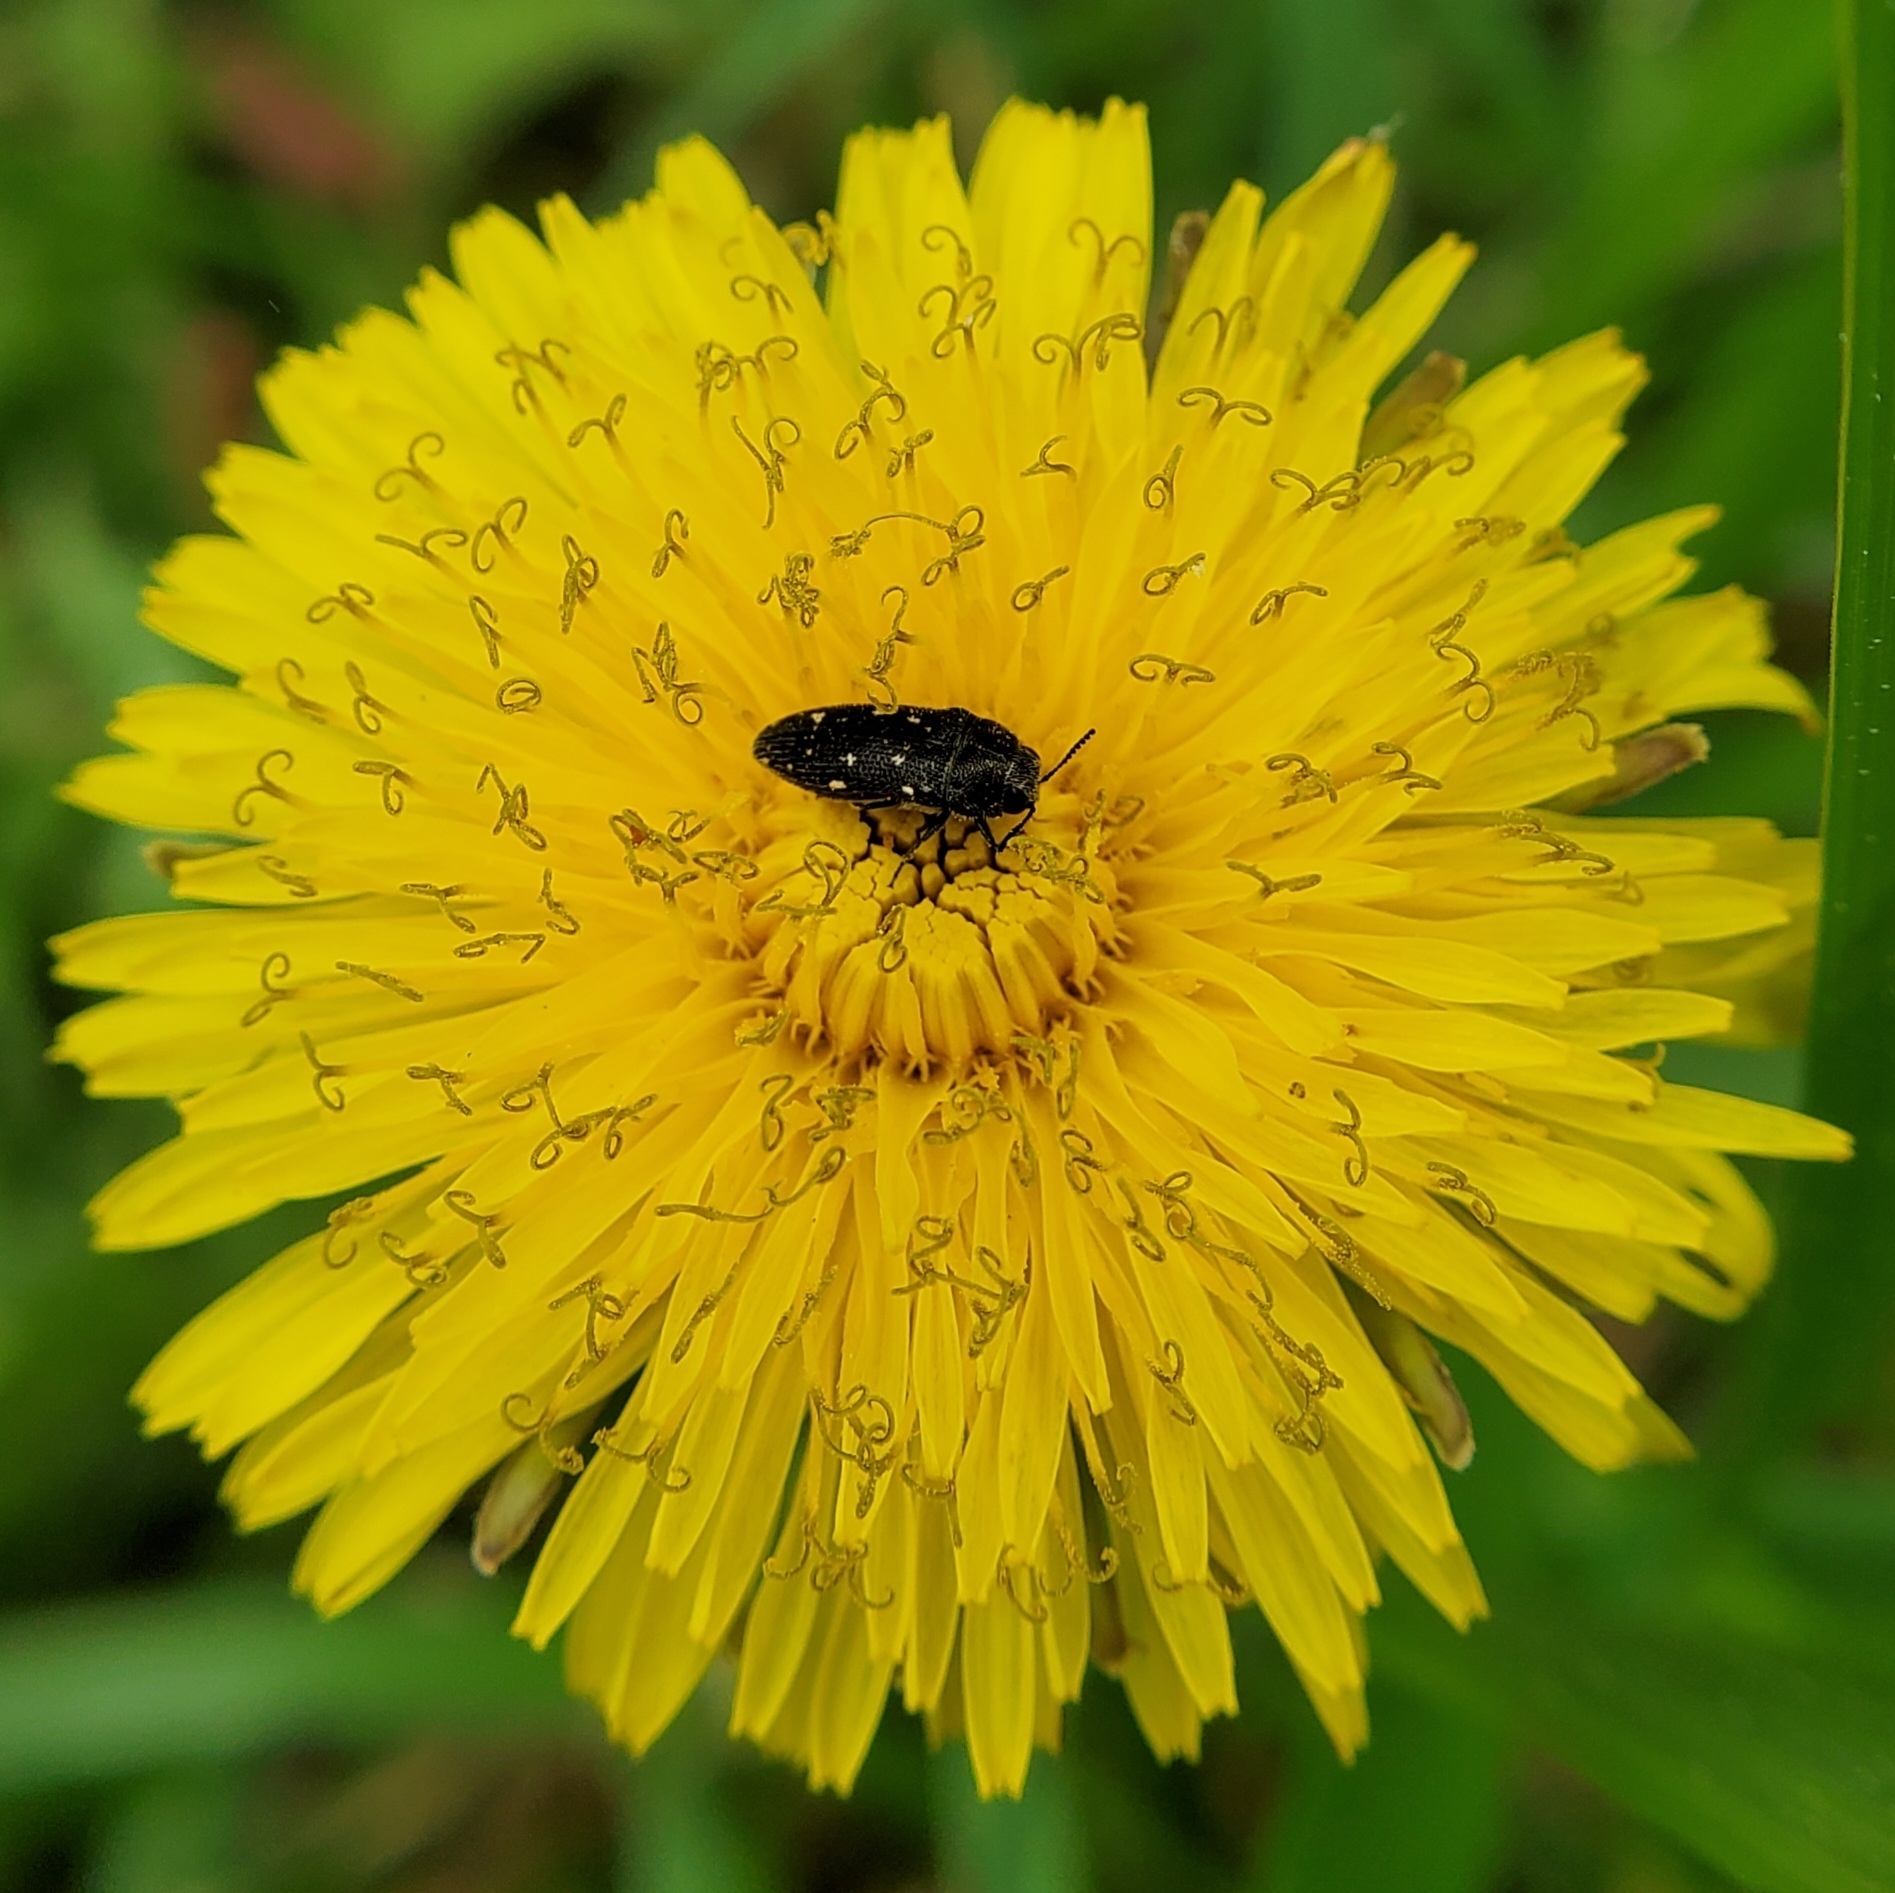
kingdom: Animalia
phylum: Arthropoda
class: Insecta
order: Coleoptera
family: Buprestidae
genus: Acmaeodera
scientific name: Acmaeodera tubulus
